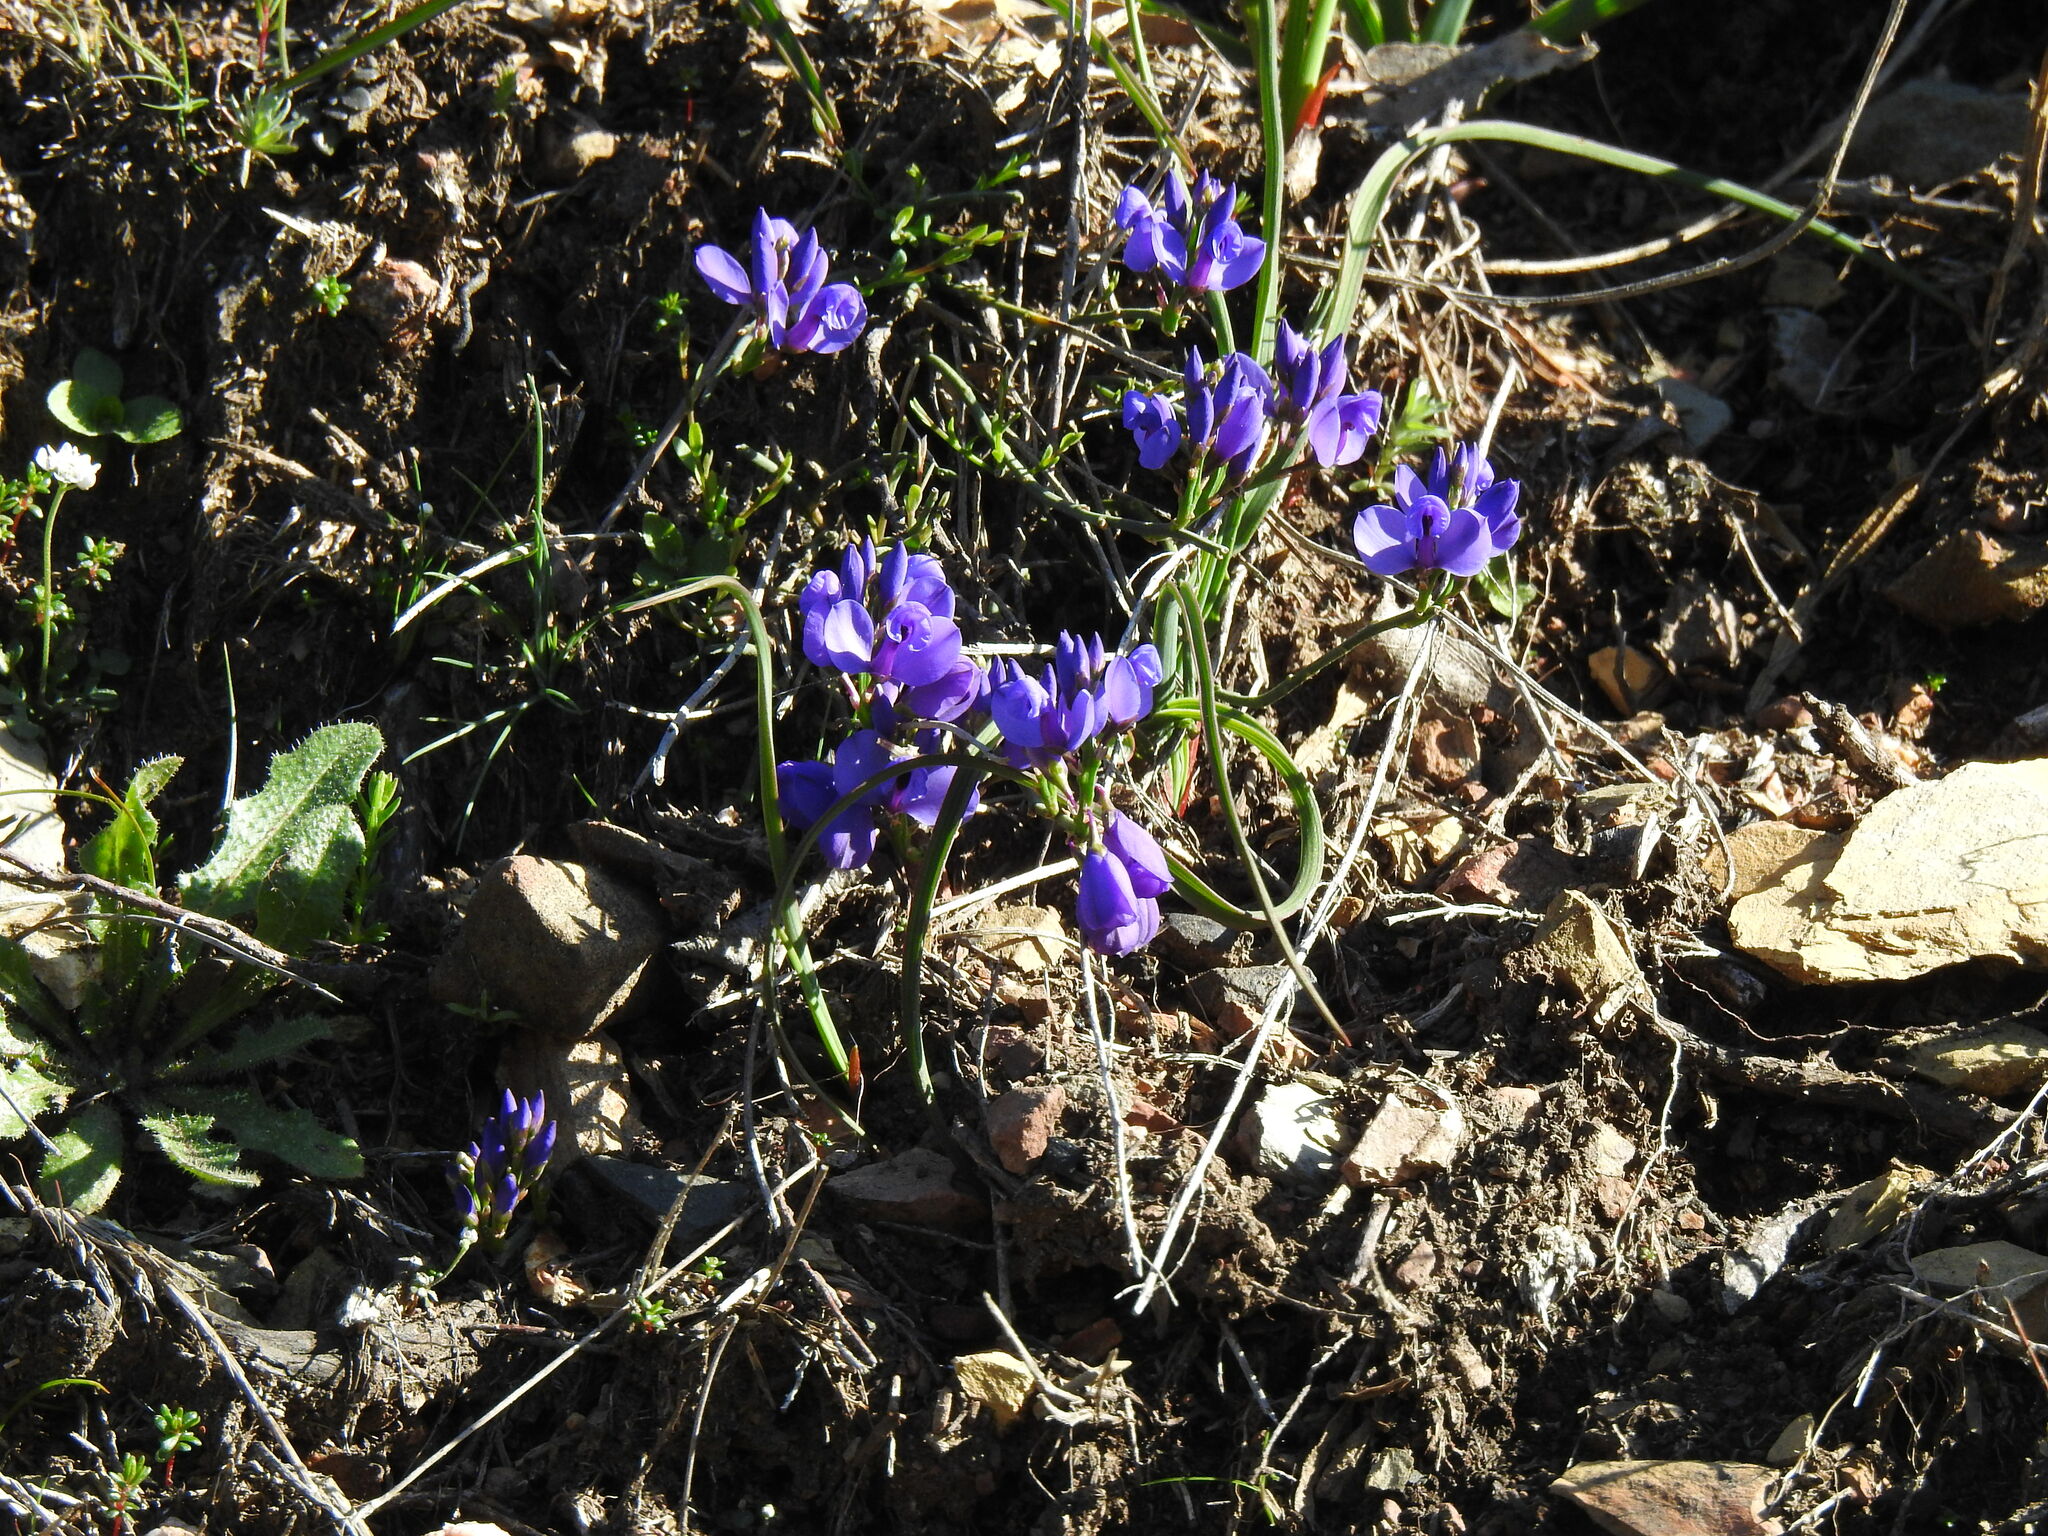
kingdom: Plantae
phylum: Tracheophyta
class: Magnoliopsida
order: Fabales
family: Polygalaceae
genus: Polygala
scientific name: Polygala microphylla
